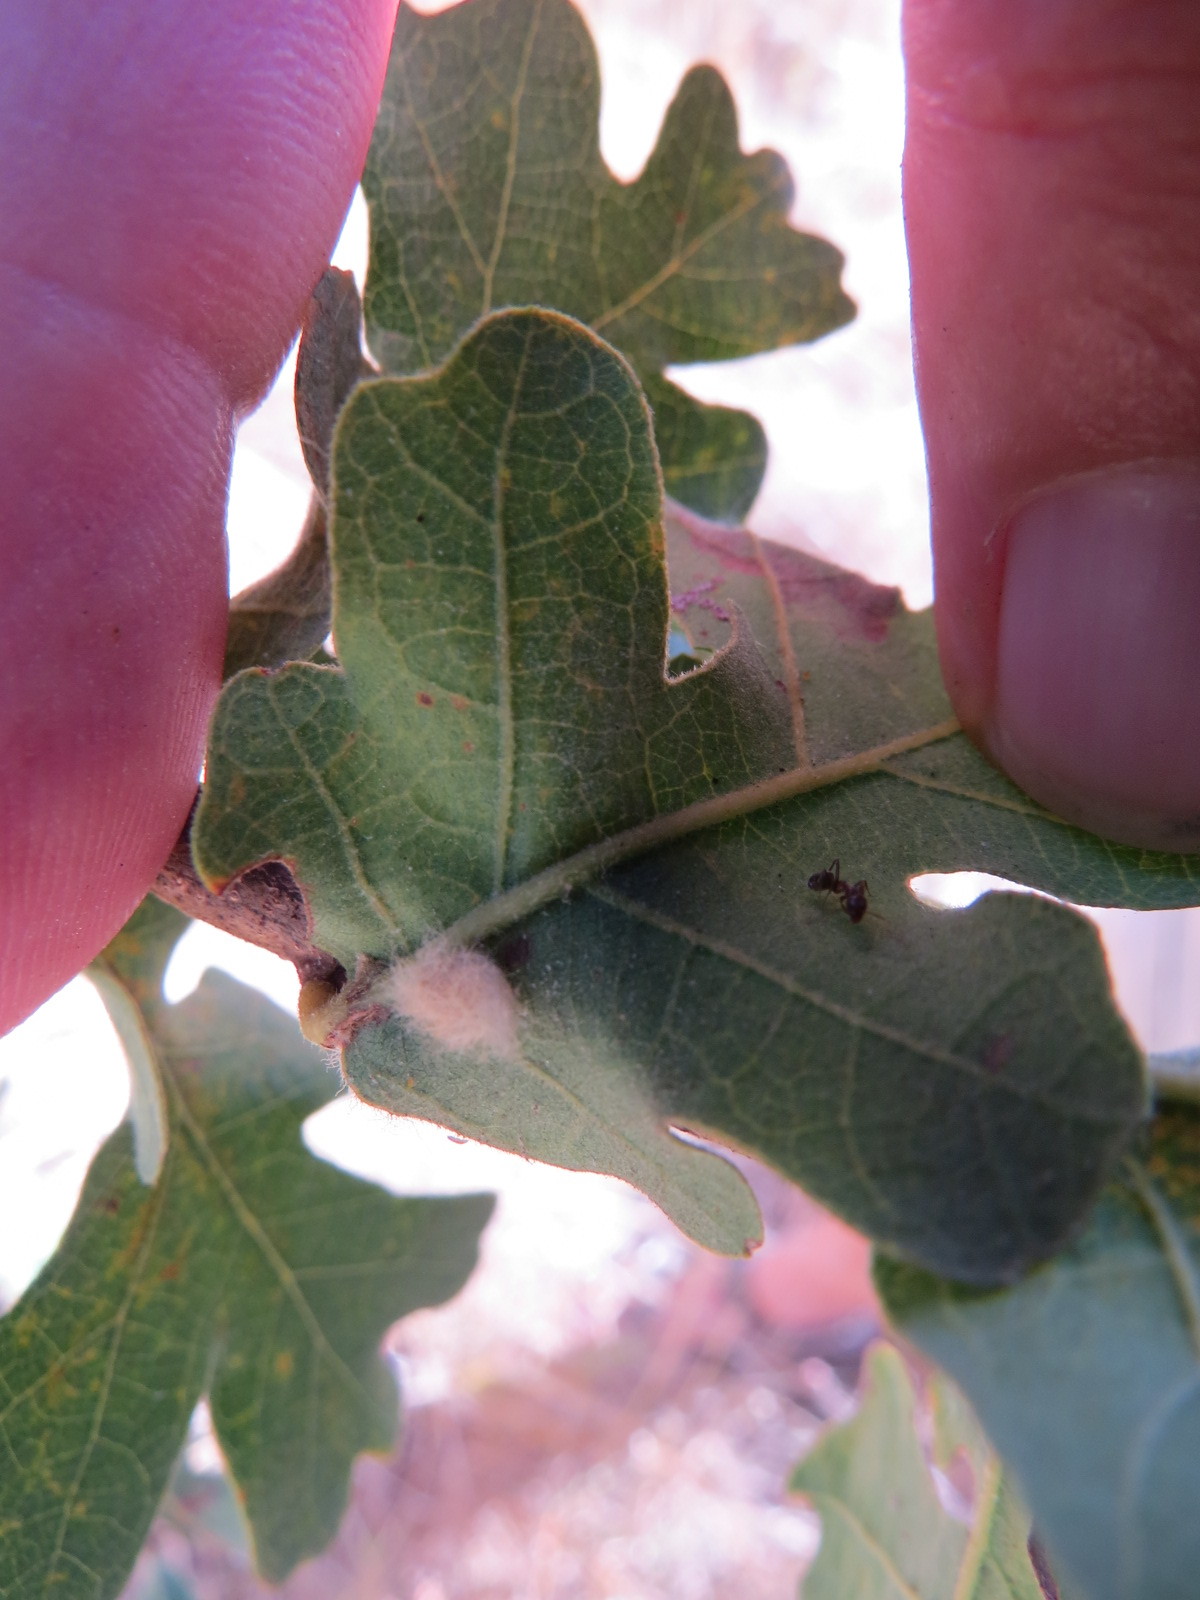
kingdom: Animalia
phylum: Arthropoda
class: Insecta
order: Hymenoptera
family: Cynipidae
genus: Andricus
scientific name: Andricus Druon fullawayi
